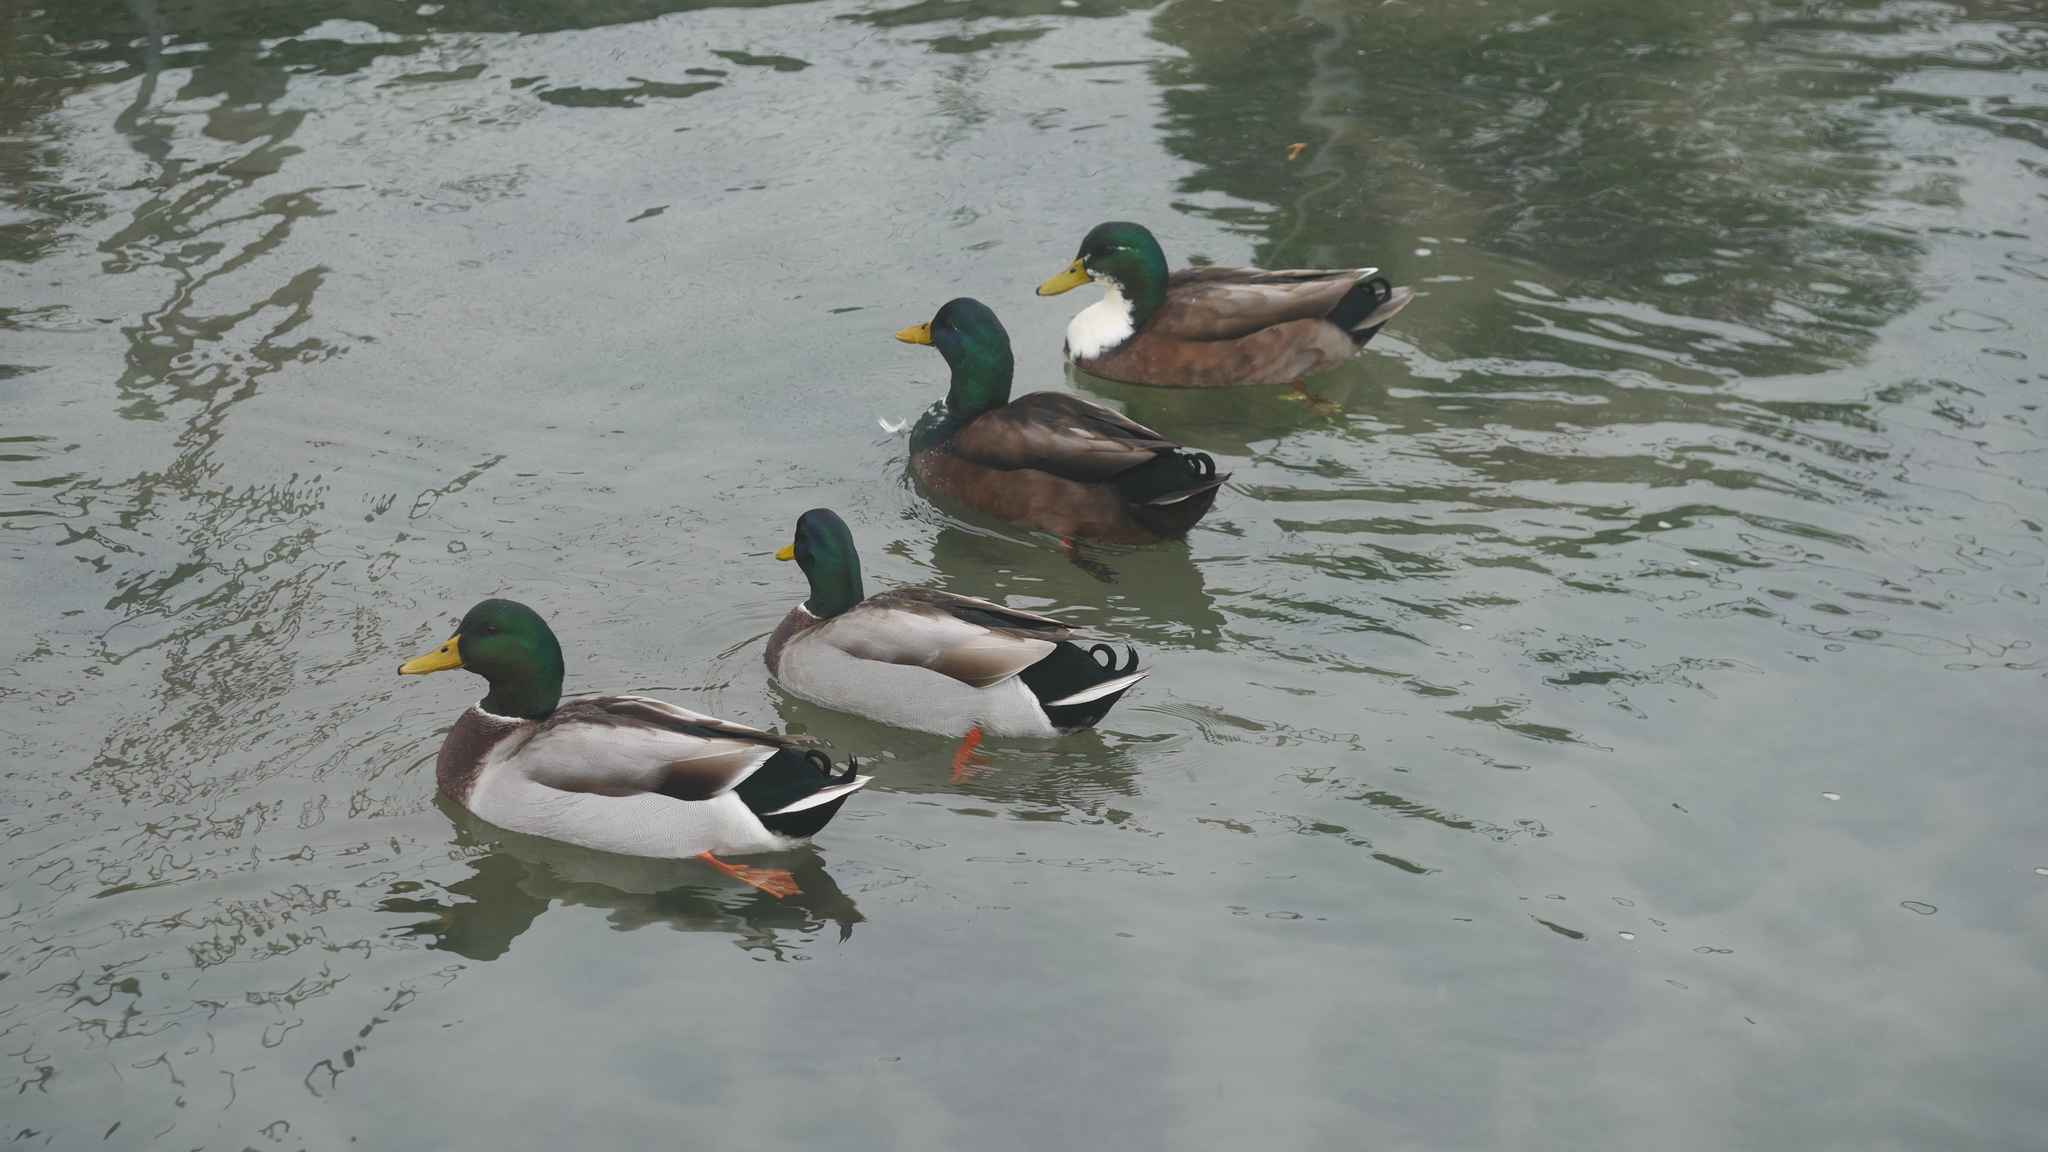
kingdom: Animalia
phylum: Chordata
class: Aves
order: Anseriformes
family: Anatidae
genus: Anas
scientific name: Anas platyrhynchos
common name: Mallard
